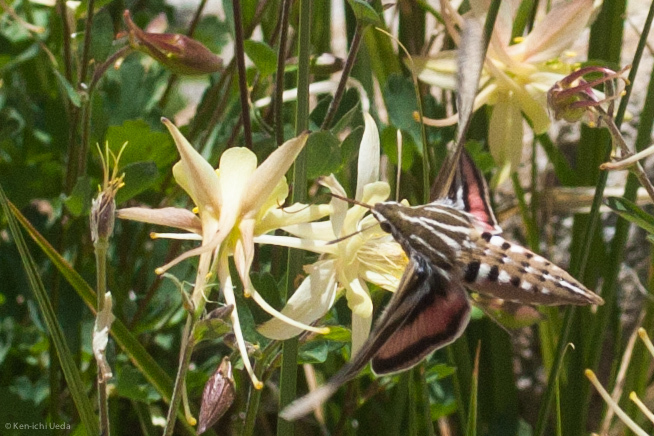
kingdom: Animalia
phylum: Arthropoda
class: Insecta
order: Lepidoptera
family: Sphingidae
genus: Hyles
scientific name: Hyles lineata
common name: White-lined sphinx
